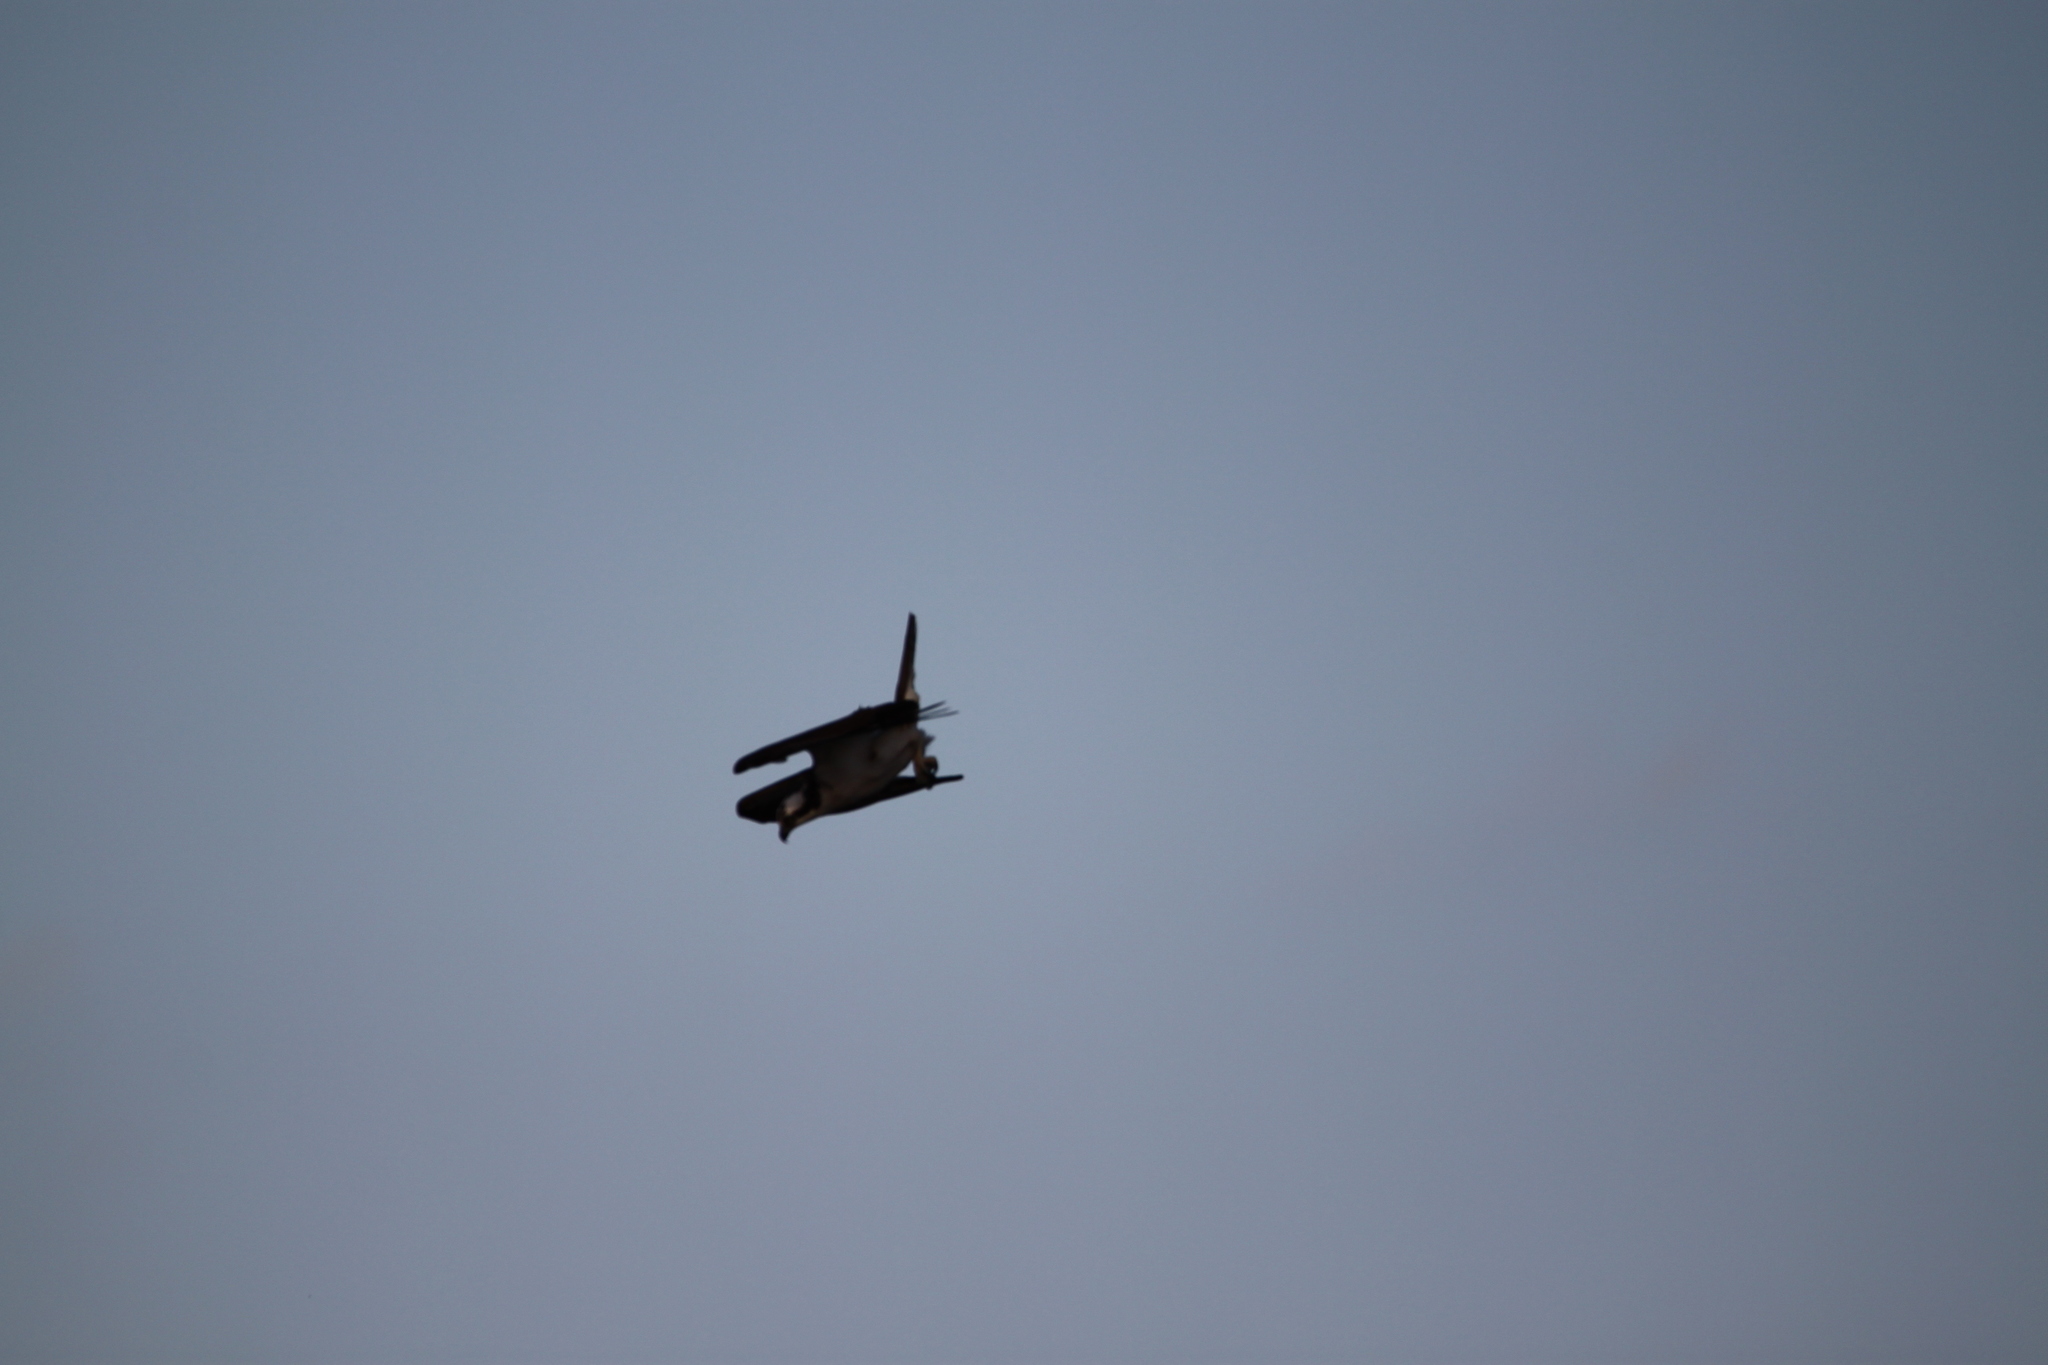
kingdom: Animalia
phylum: Chordata
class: Aves
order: Accipitriformes
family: Pandionidae
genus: Pandion
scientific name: Pandion haliaetus
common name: Osprey
